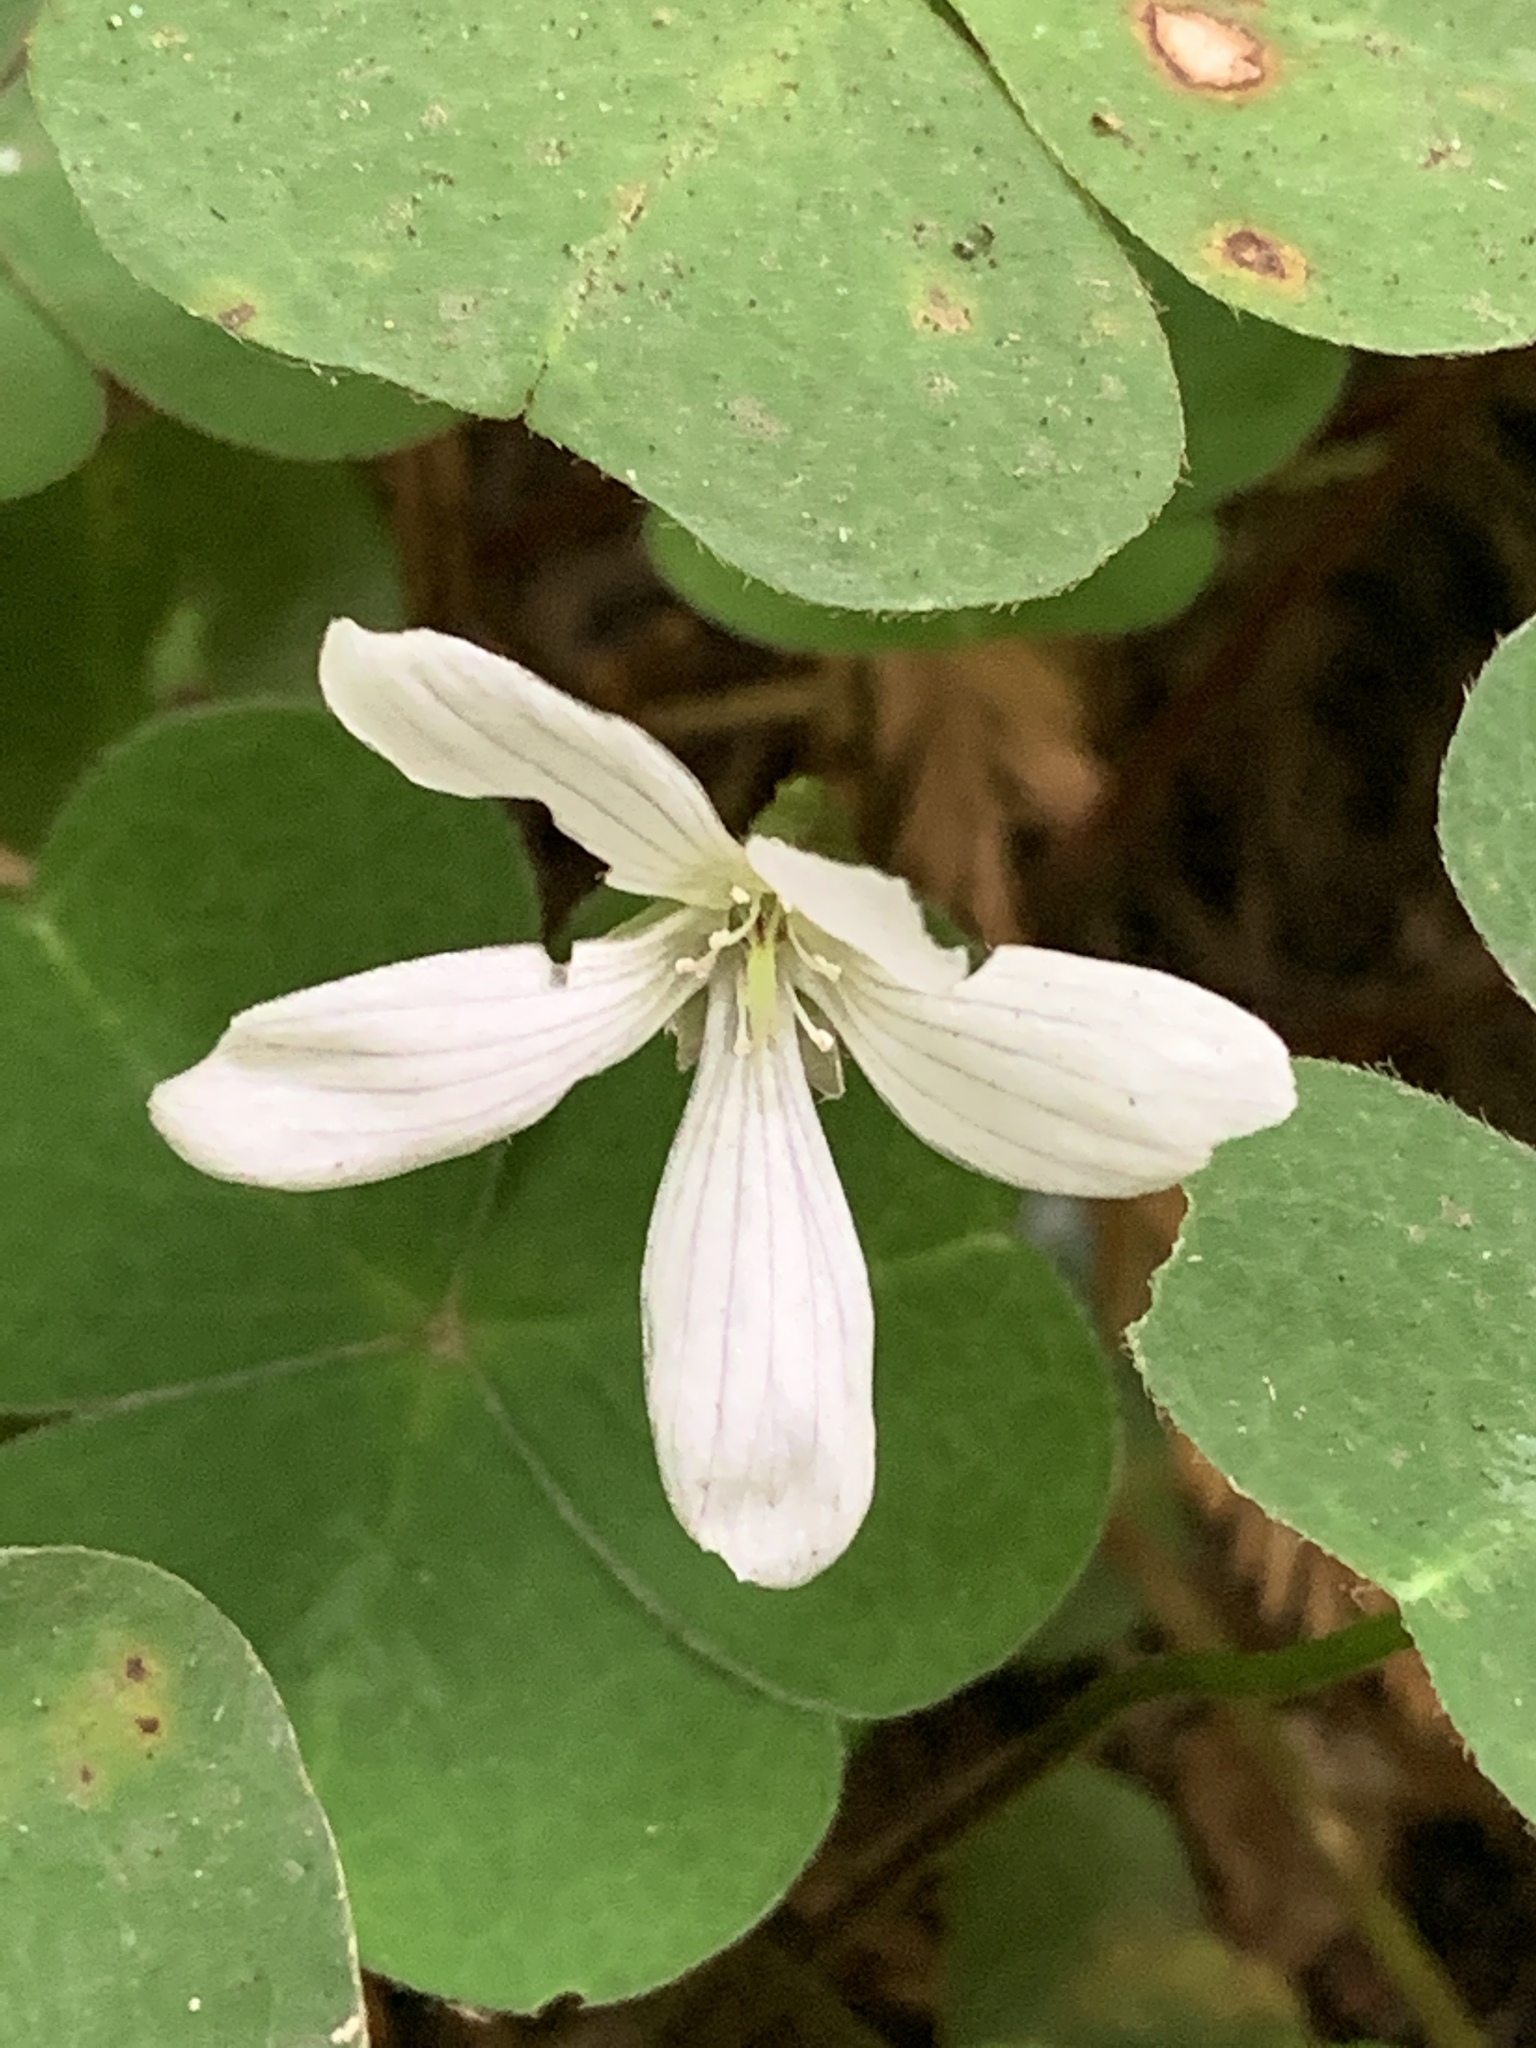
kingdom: Plantae
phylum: Tracheophyta
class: Magnoliopsida
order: Oxalidales
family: Oxalidaceae
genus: Oxalis
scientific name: Oxalis oregana
